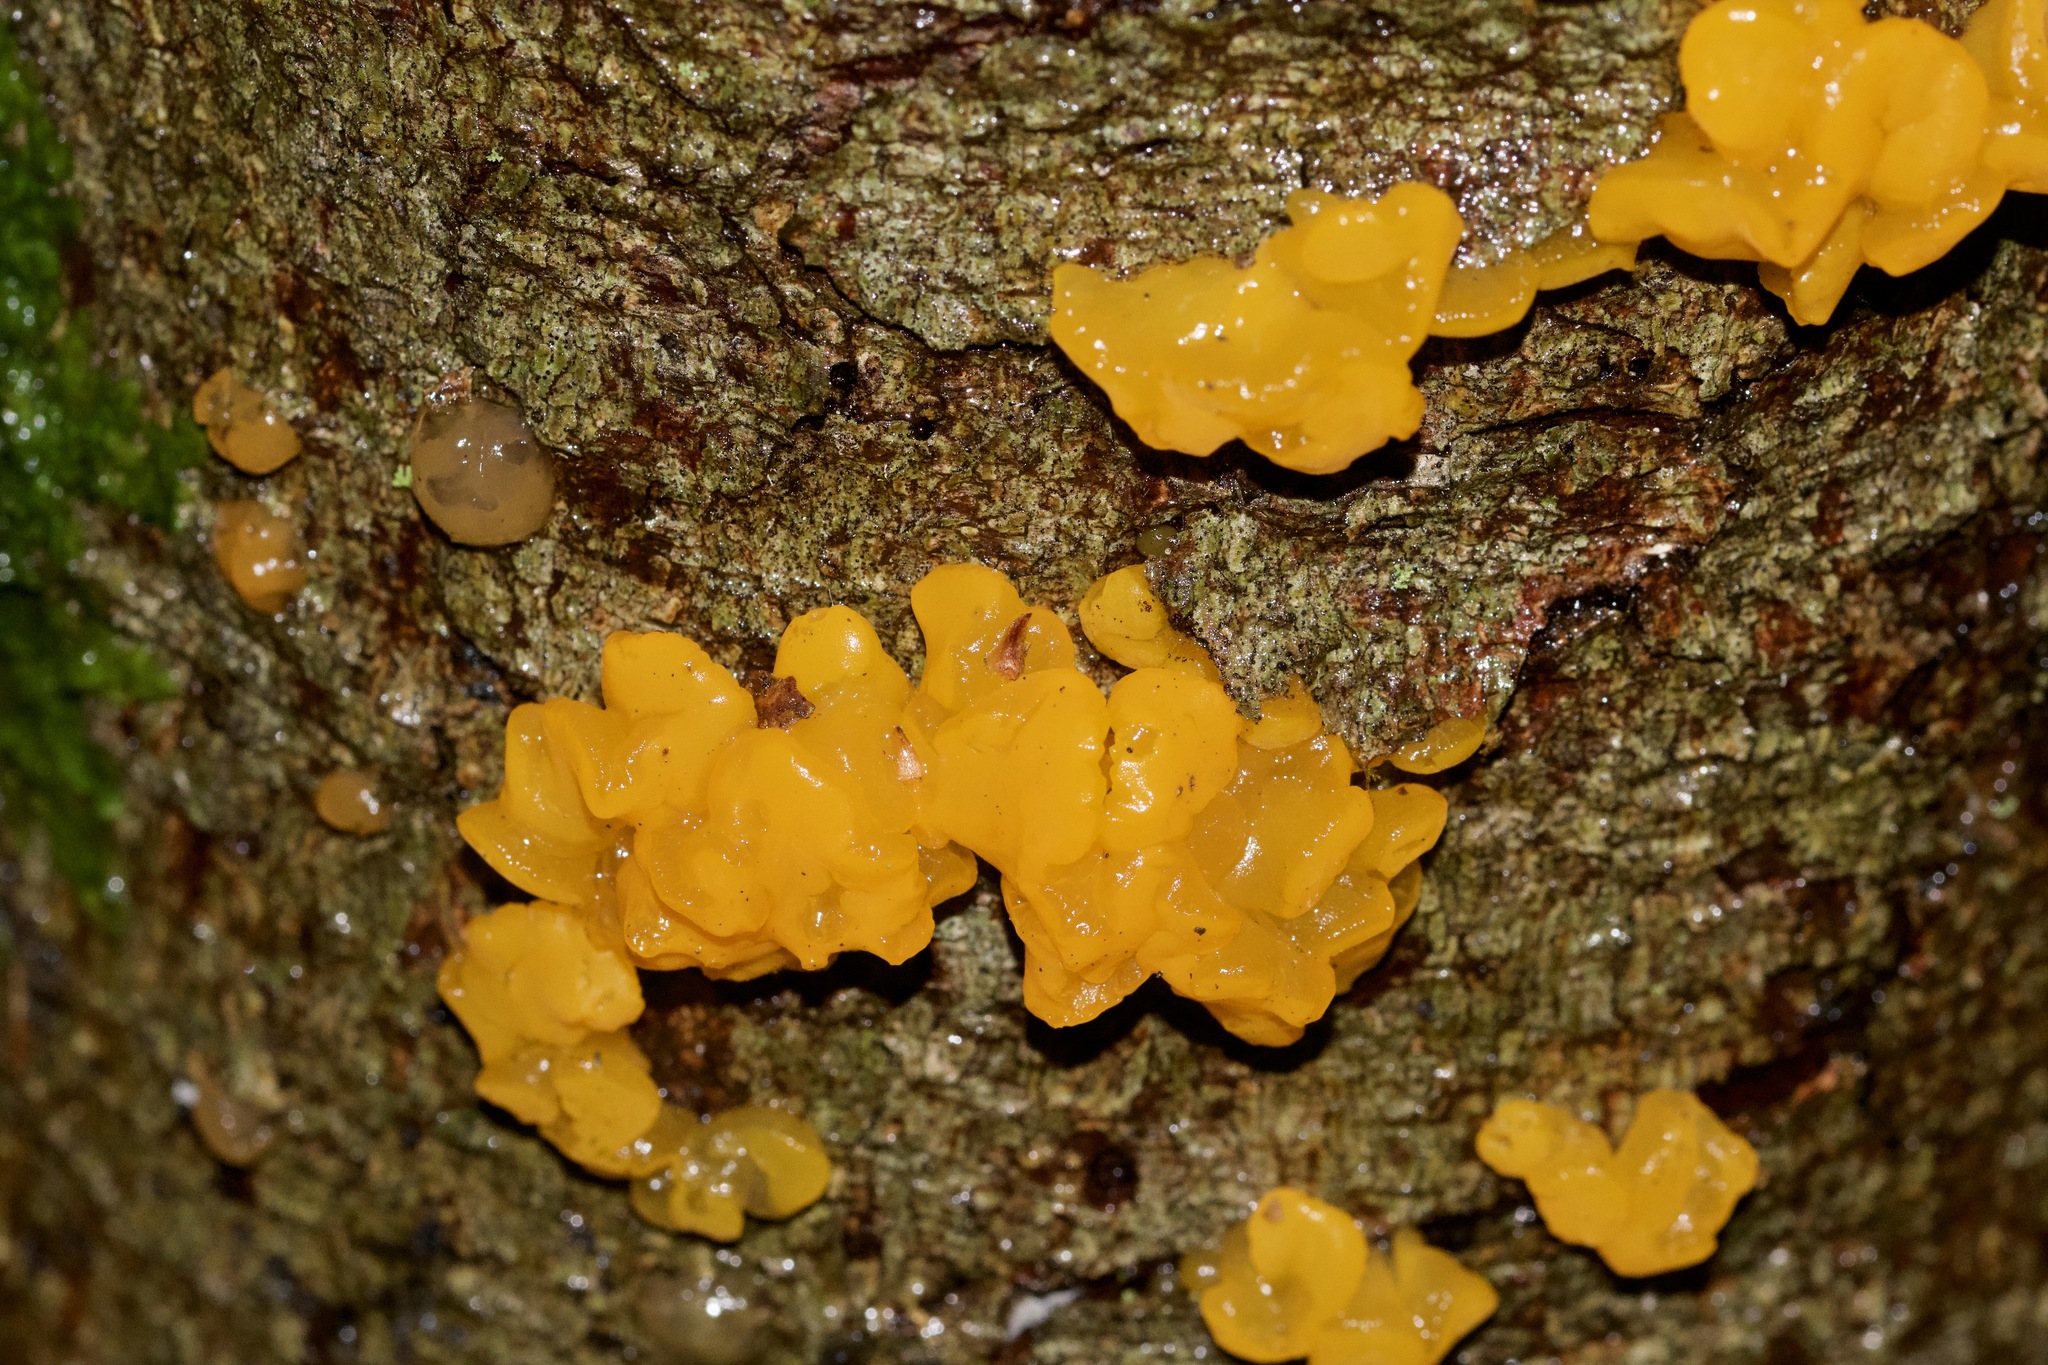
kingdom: Fungi
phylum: Basidiomycota
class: Dacrymycetes
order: Dacrymycetales
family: Dacrymycetaceae
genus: Dacrymyces
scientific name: Dacrymyces chrysospermus
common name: Orange jelly spot
